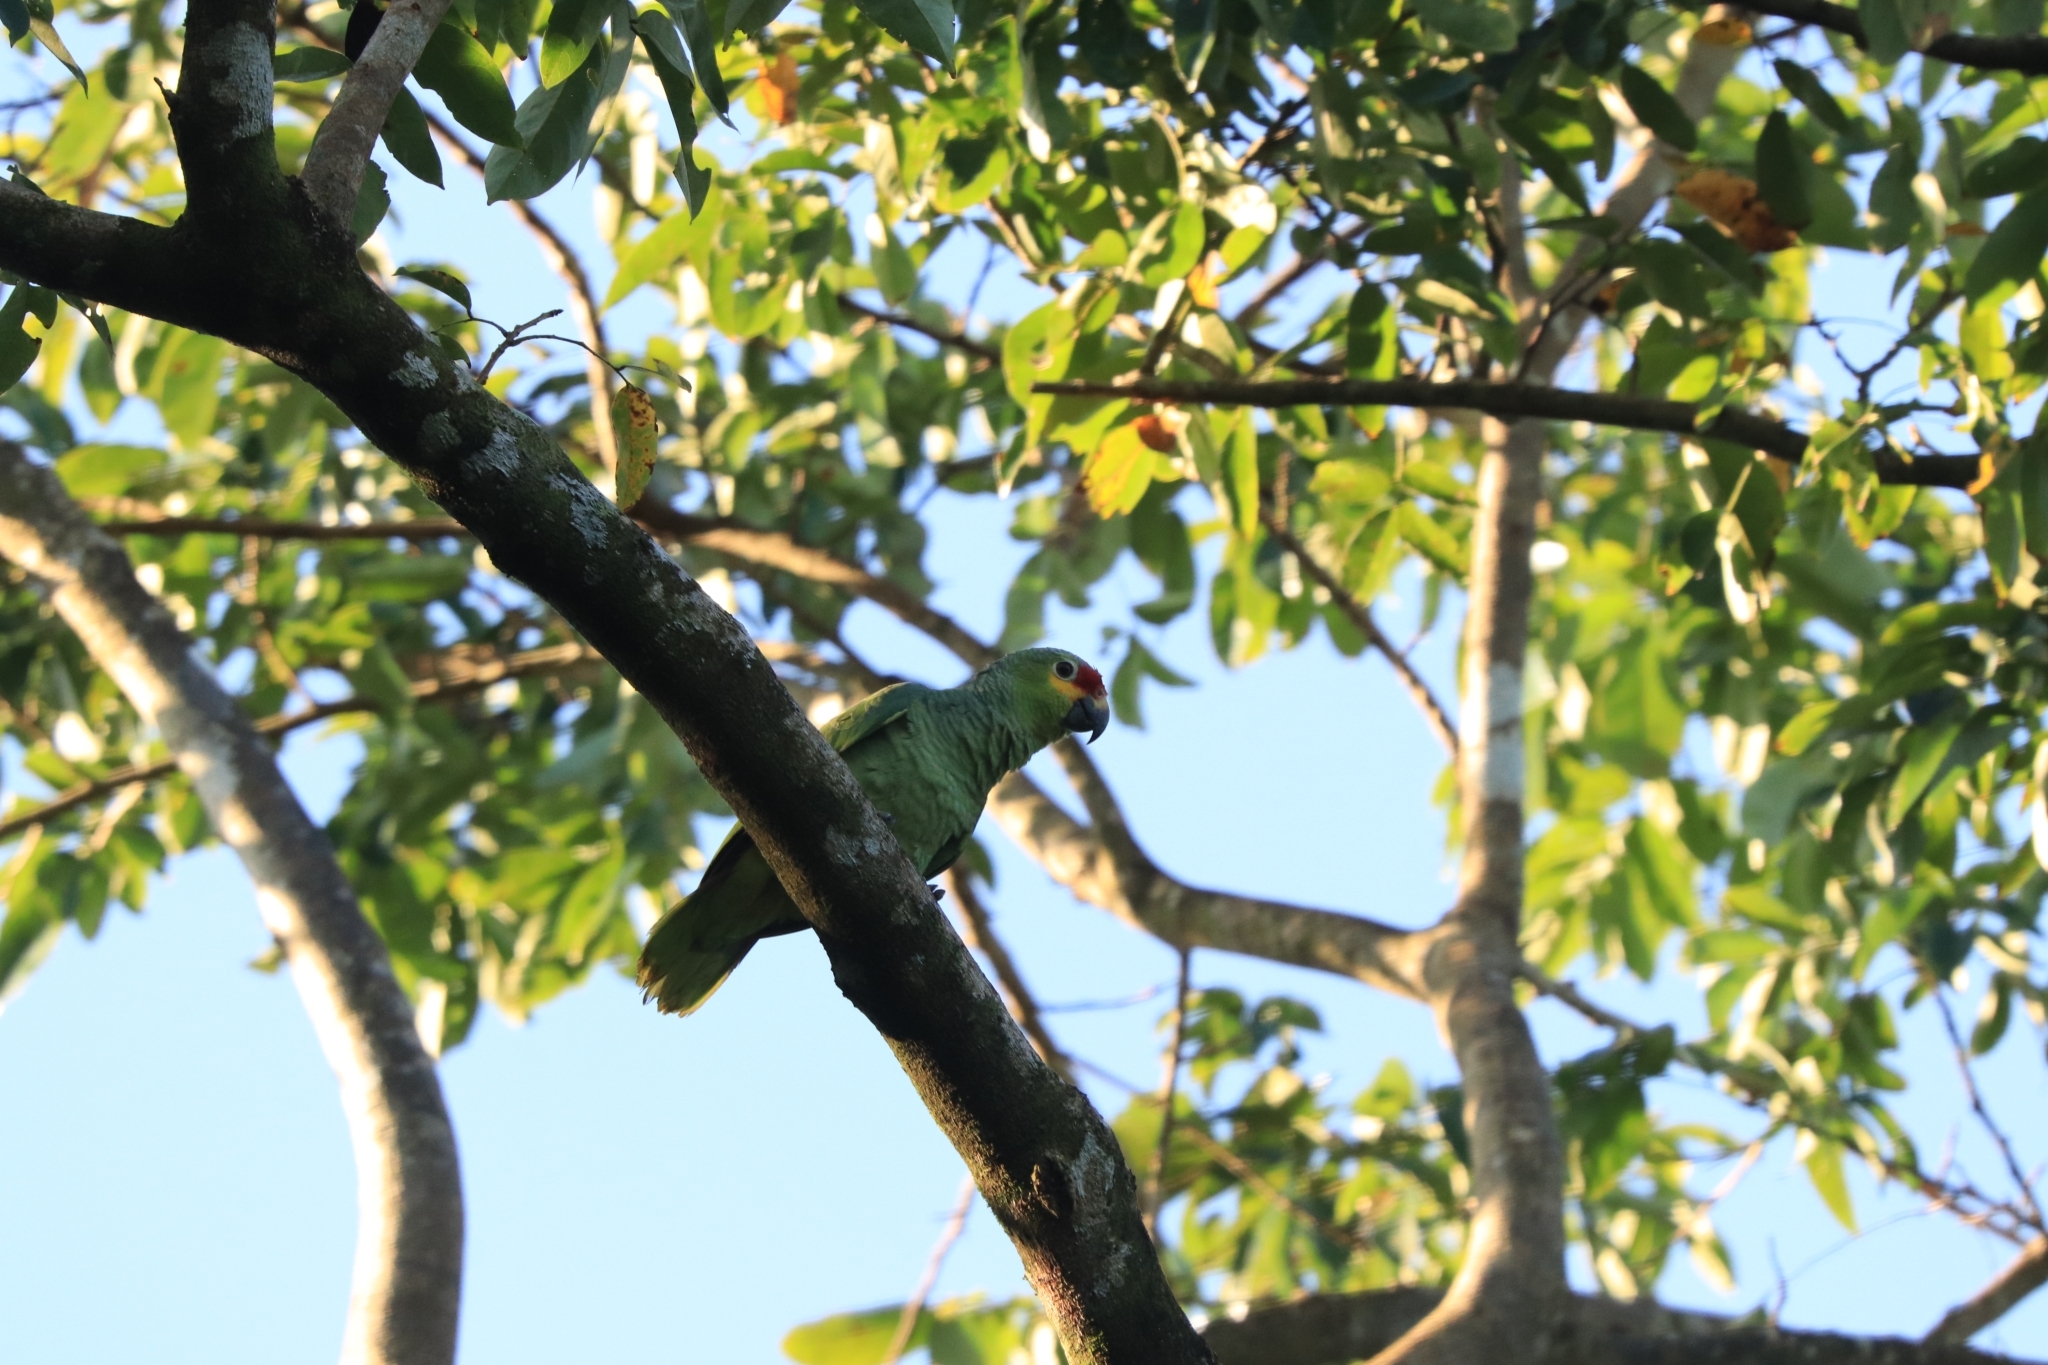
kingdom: Animalia
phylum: Chordata
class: Aves
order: Psittaciformes
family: Psittacidae
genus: Amazona
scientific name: Amazona autumnalis
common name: Red-lored amazon
